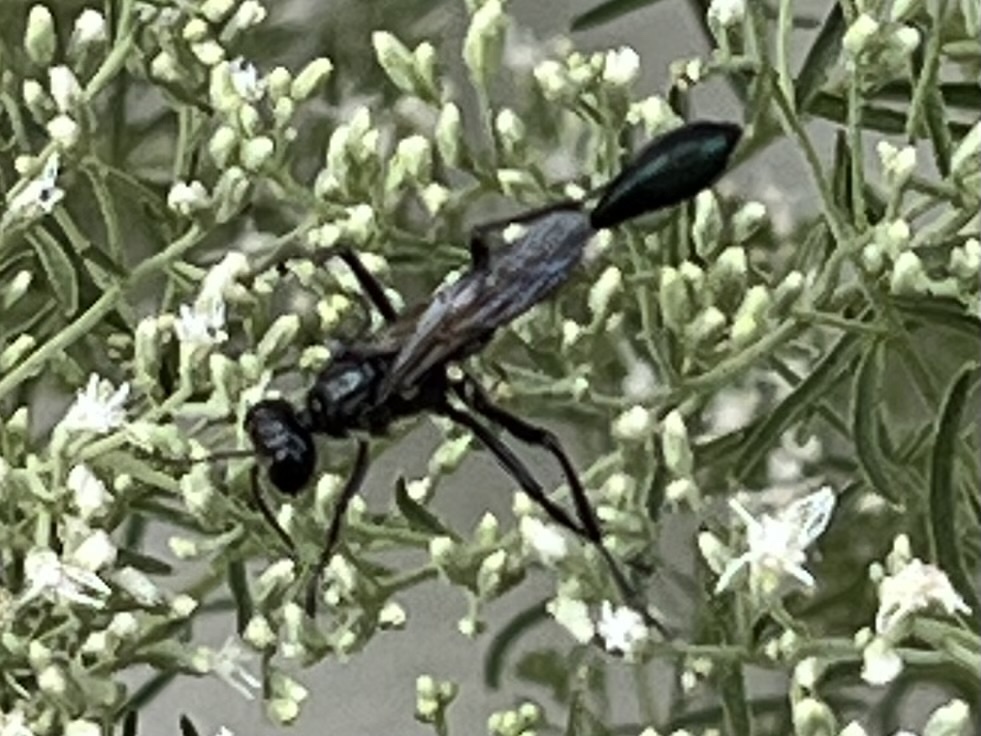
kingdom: Animalia
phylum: Arthropoda
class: Insecta
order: Hymenoptera
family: Sphecidae
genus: Eremnophila
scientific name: Eremnophila aureonotata
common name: Gold-marked thread-waisted wasp
